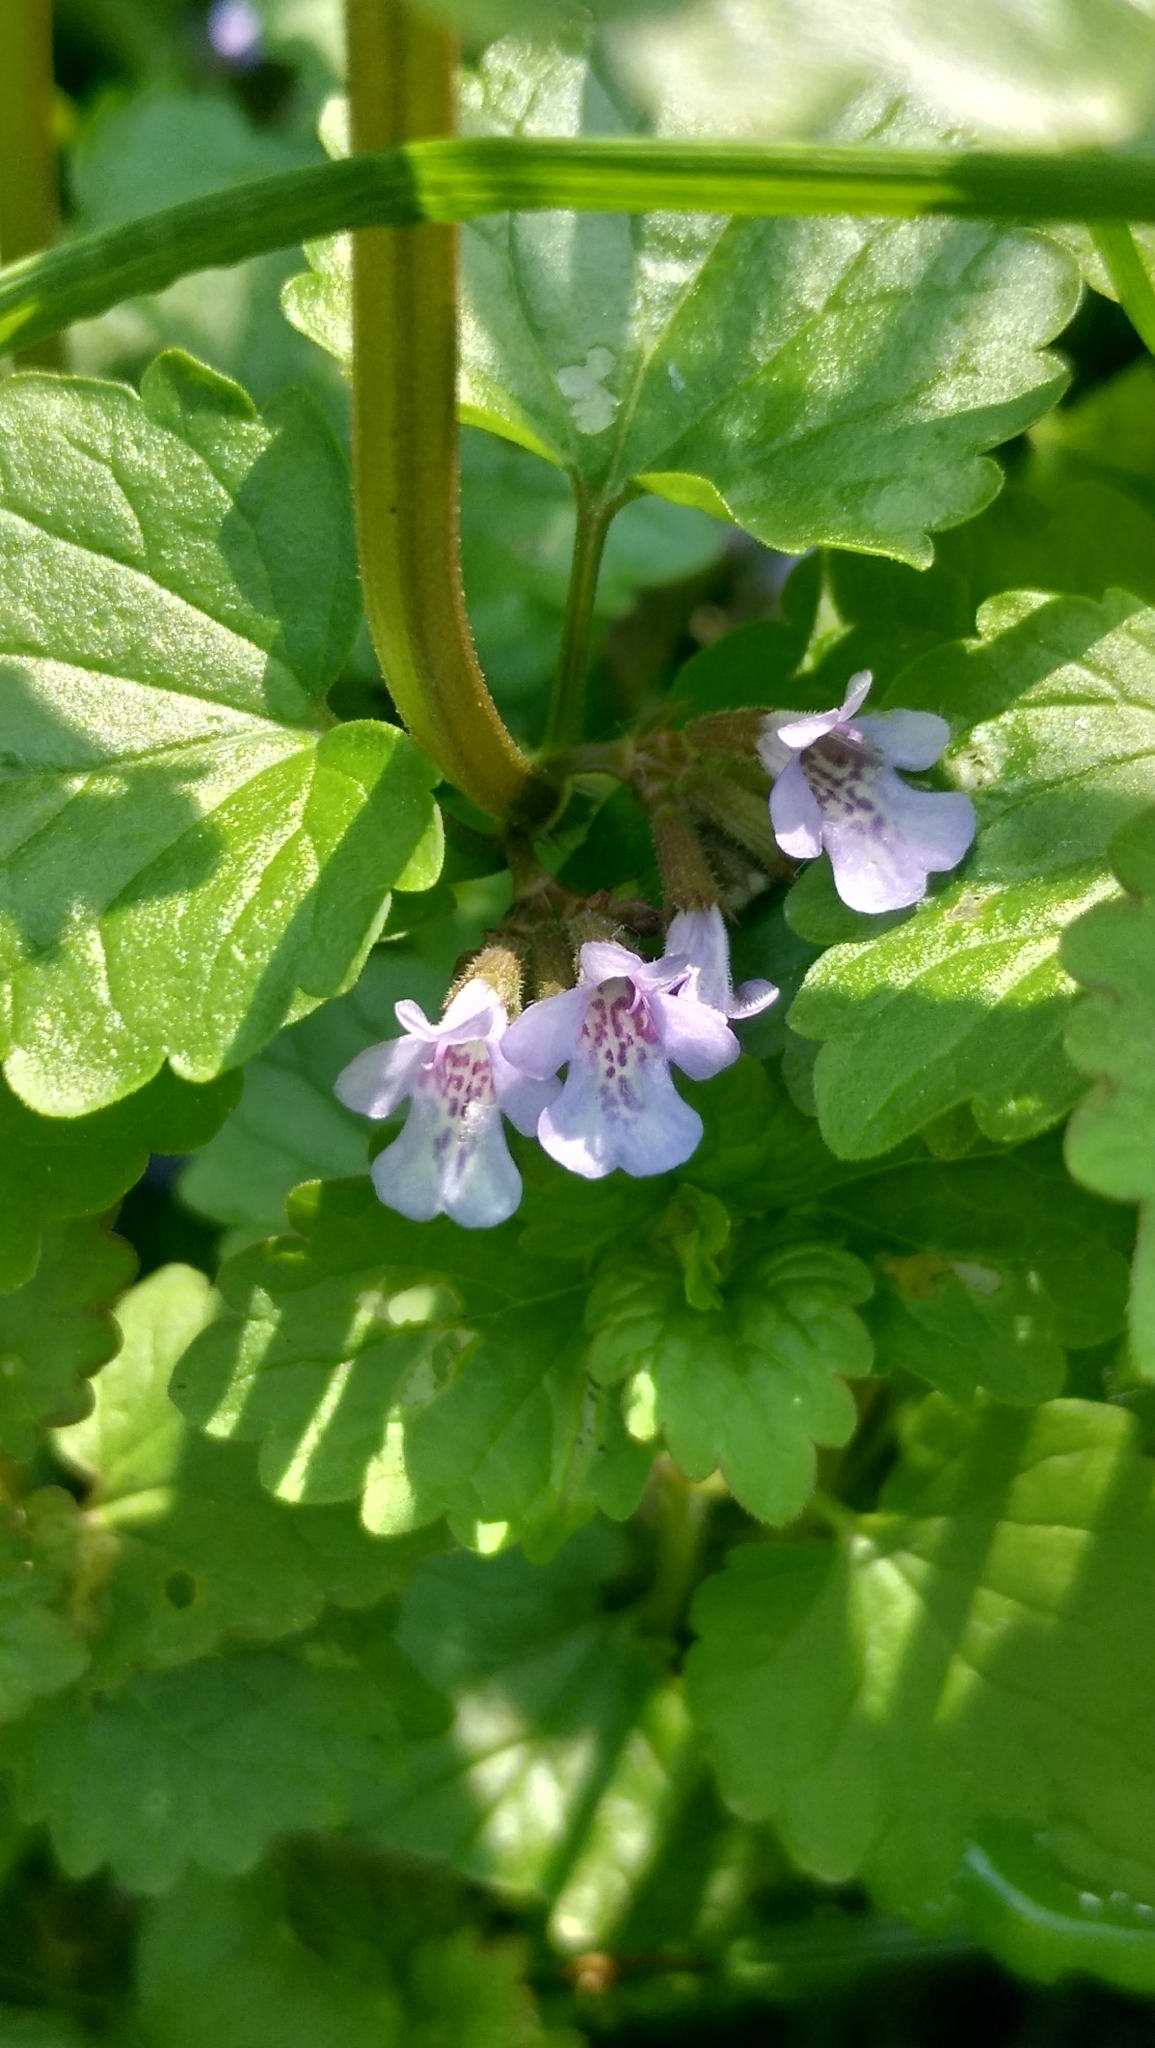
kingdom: Plantae
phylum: Tracheophyta
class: Magnoliopsida
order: Lamiales
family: Lamiaceae
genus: Glechoma
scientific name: Glechoma hederacea
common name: Ground ivy
